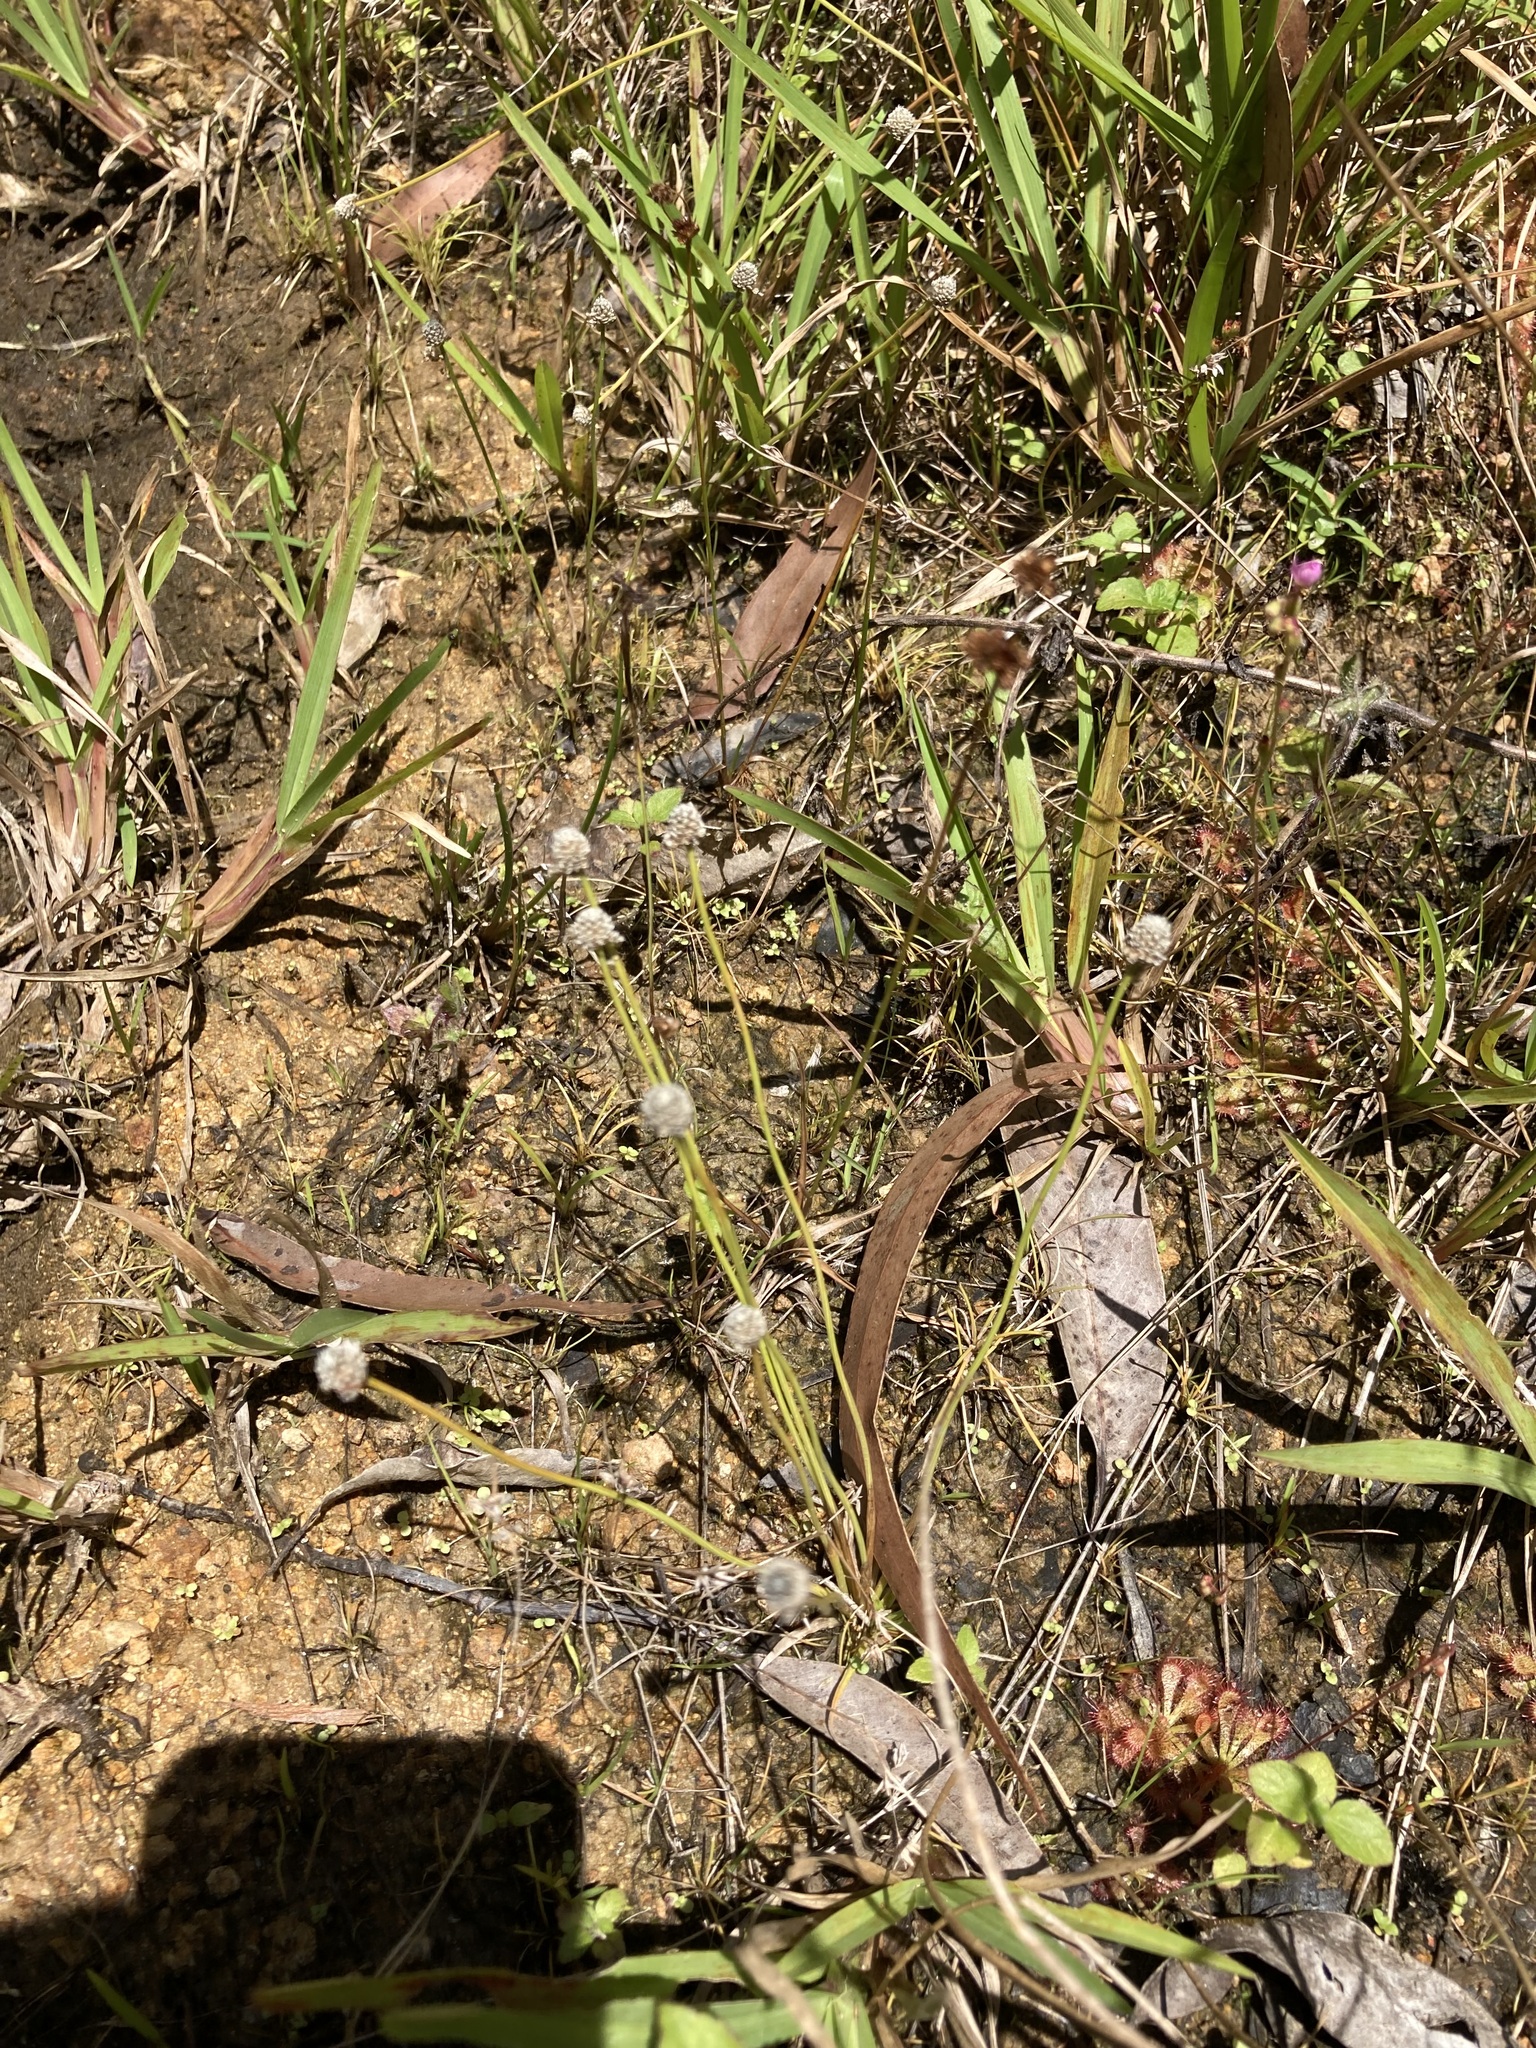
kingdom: Plantae
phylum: Tracheophyta
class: Liliopsida
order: Poales
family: Eriocaulaceae
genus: Eriocaulon
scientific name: Eriocaulon scariosum
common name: Rough pipewort
